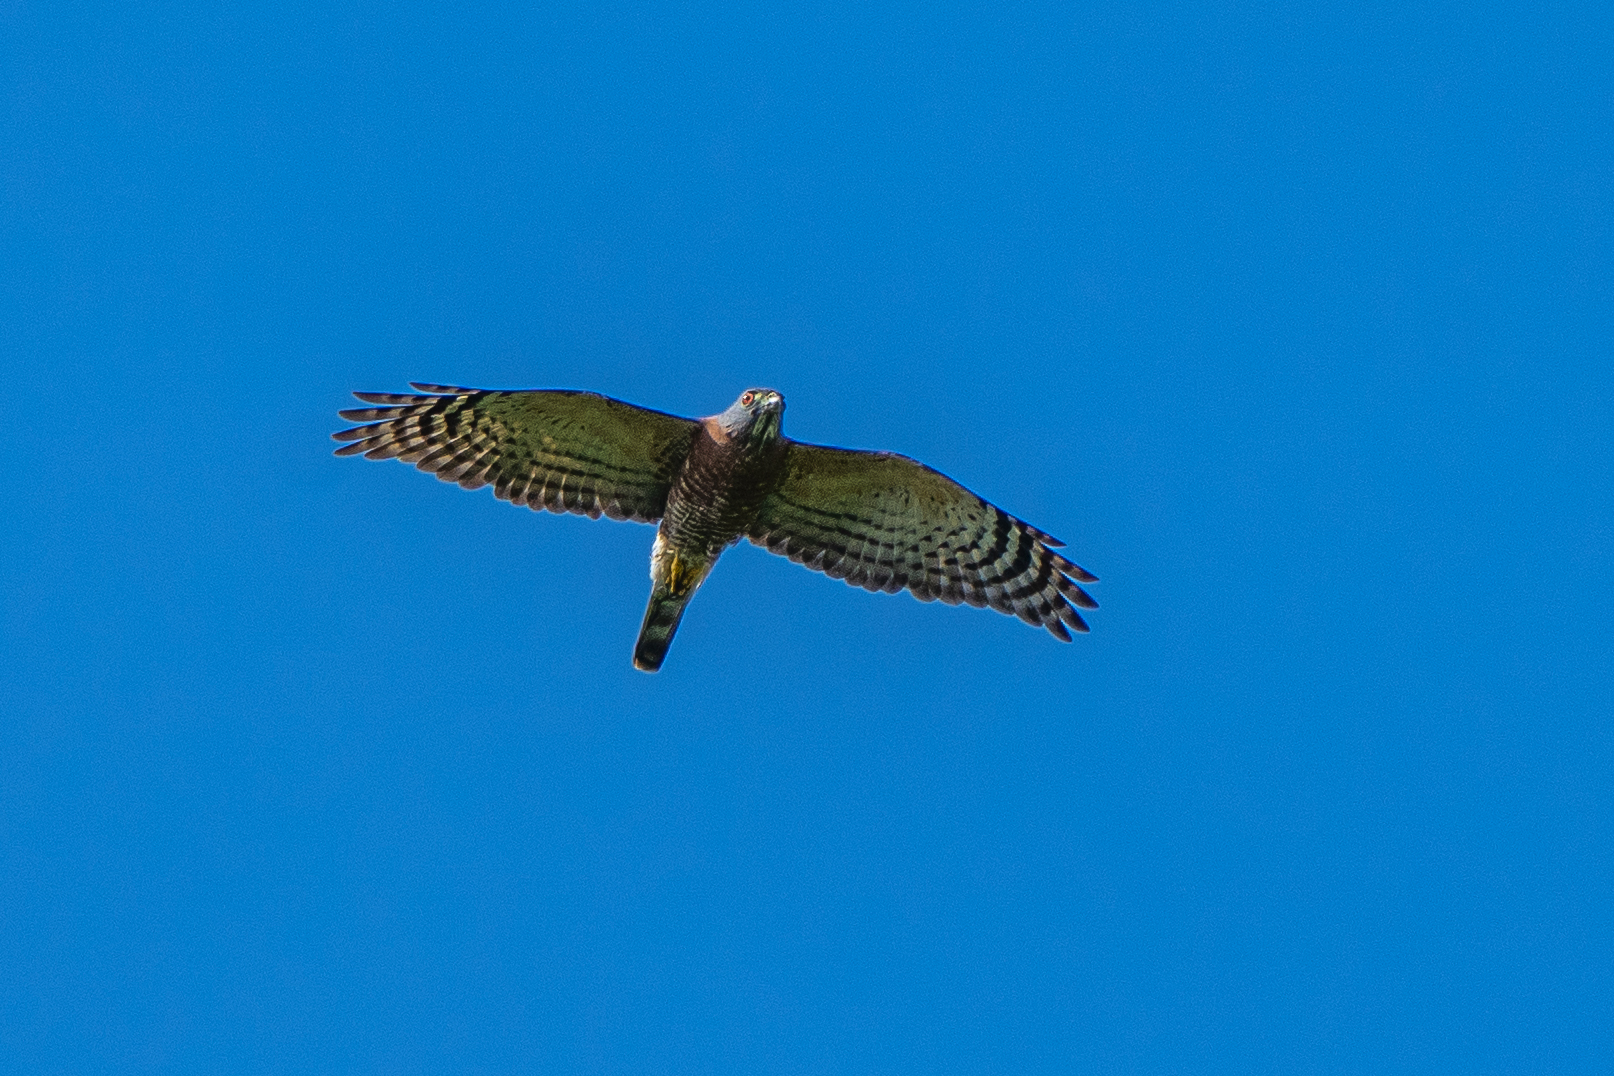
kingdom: Animalia
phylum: Chordata
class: Aves
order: Accipitriformes
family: Accipitridae
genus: Harpagus
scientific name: Harpagus bidentatus
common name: Double-toothed kite
